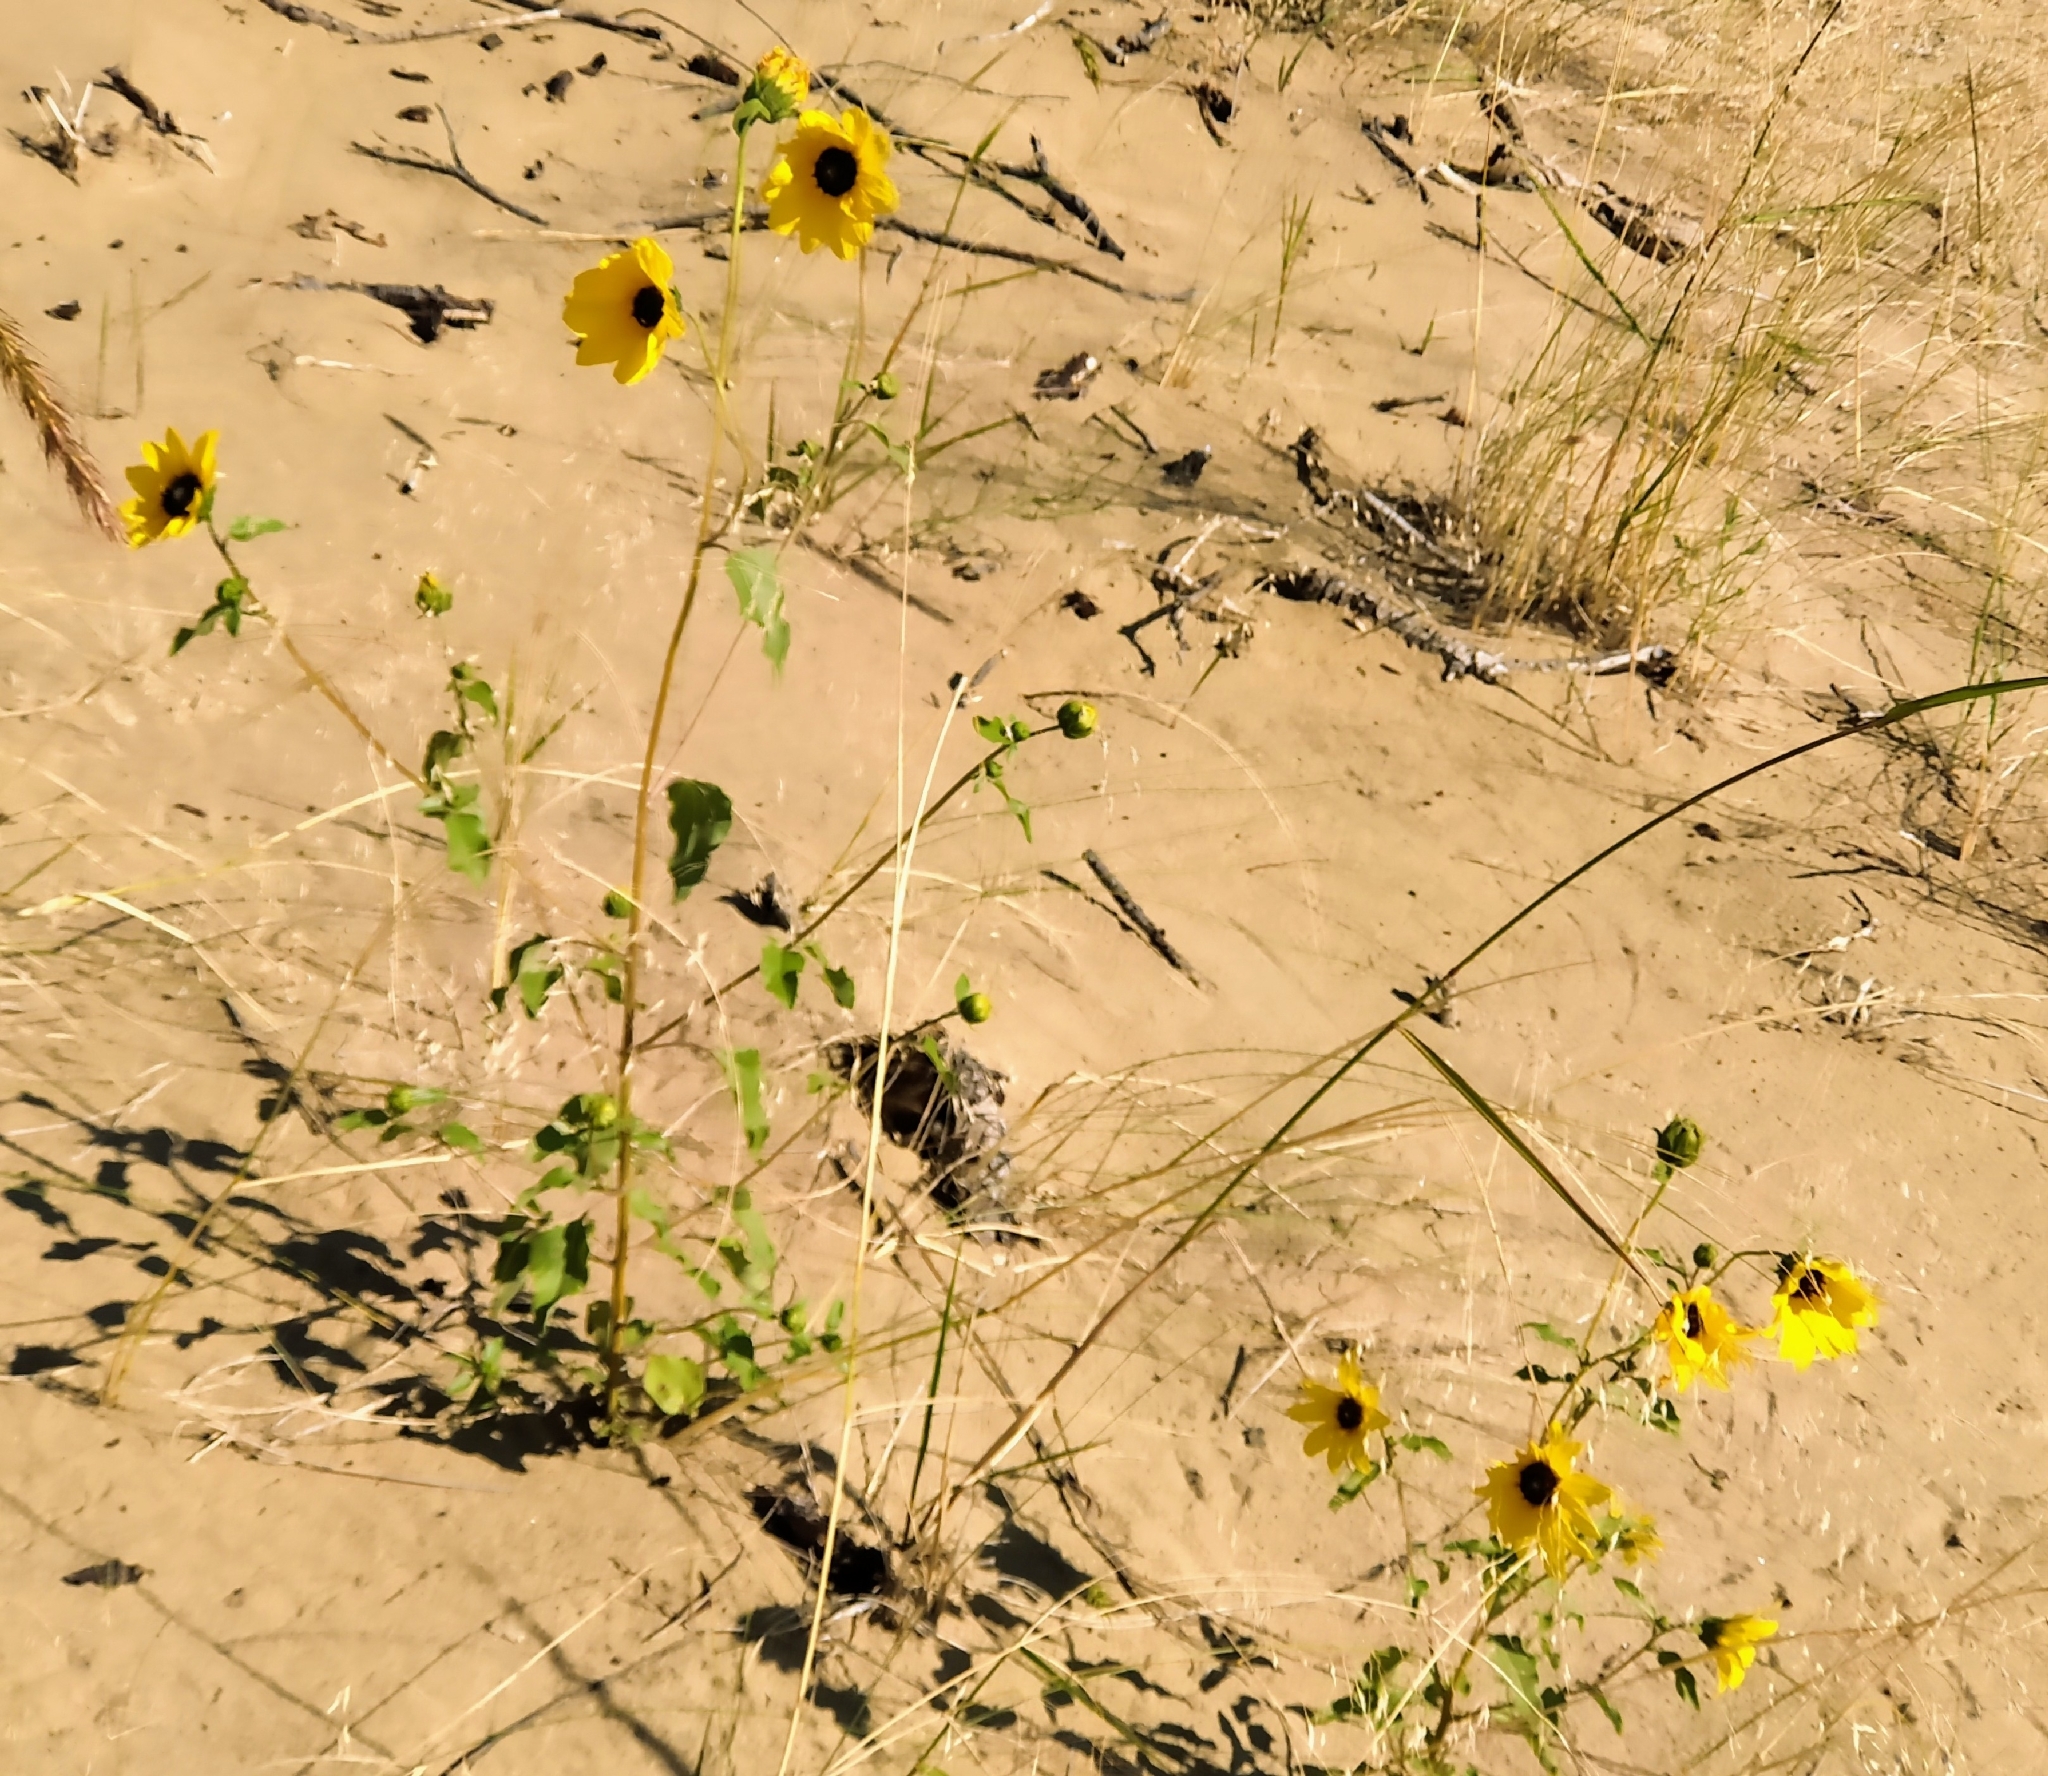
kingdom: Plantae
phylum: Tracheophyta
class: Magnoliopsida
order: Asterales
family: Asteraceae
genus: Helianthus
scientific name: Helianthus petiolaris
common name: Lesser sunflower
